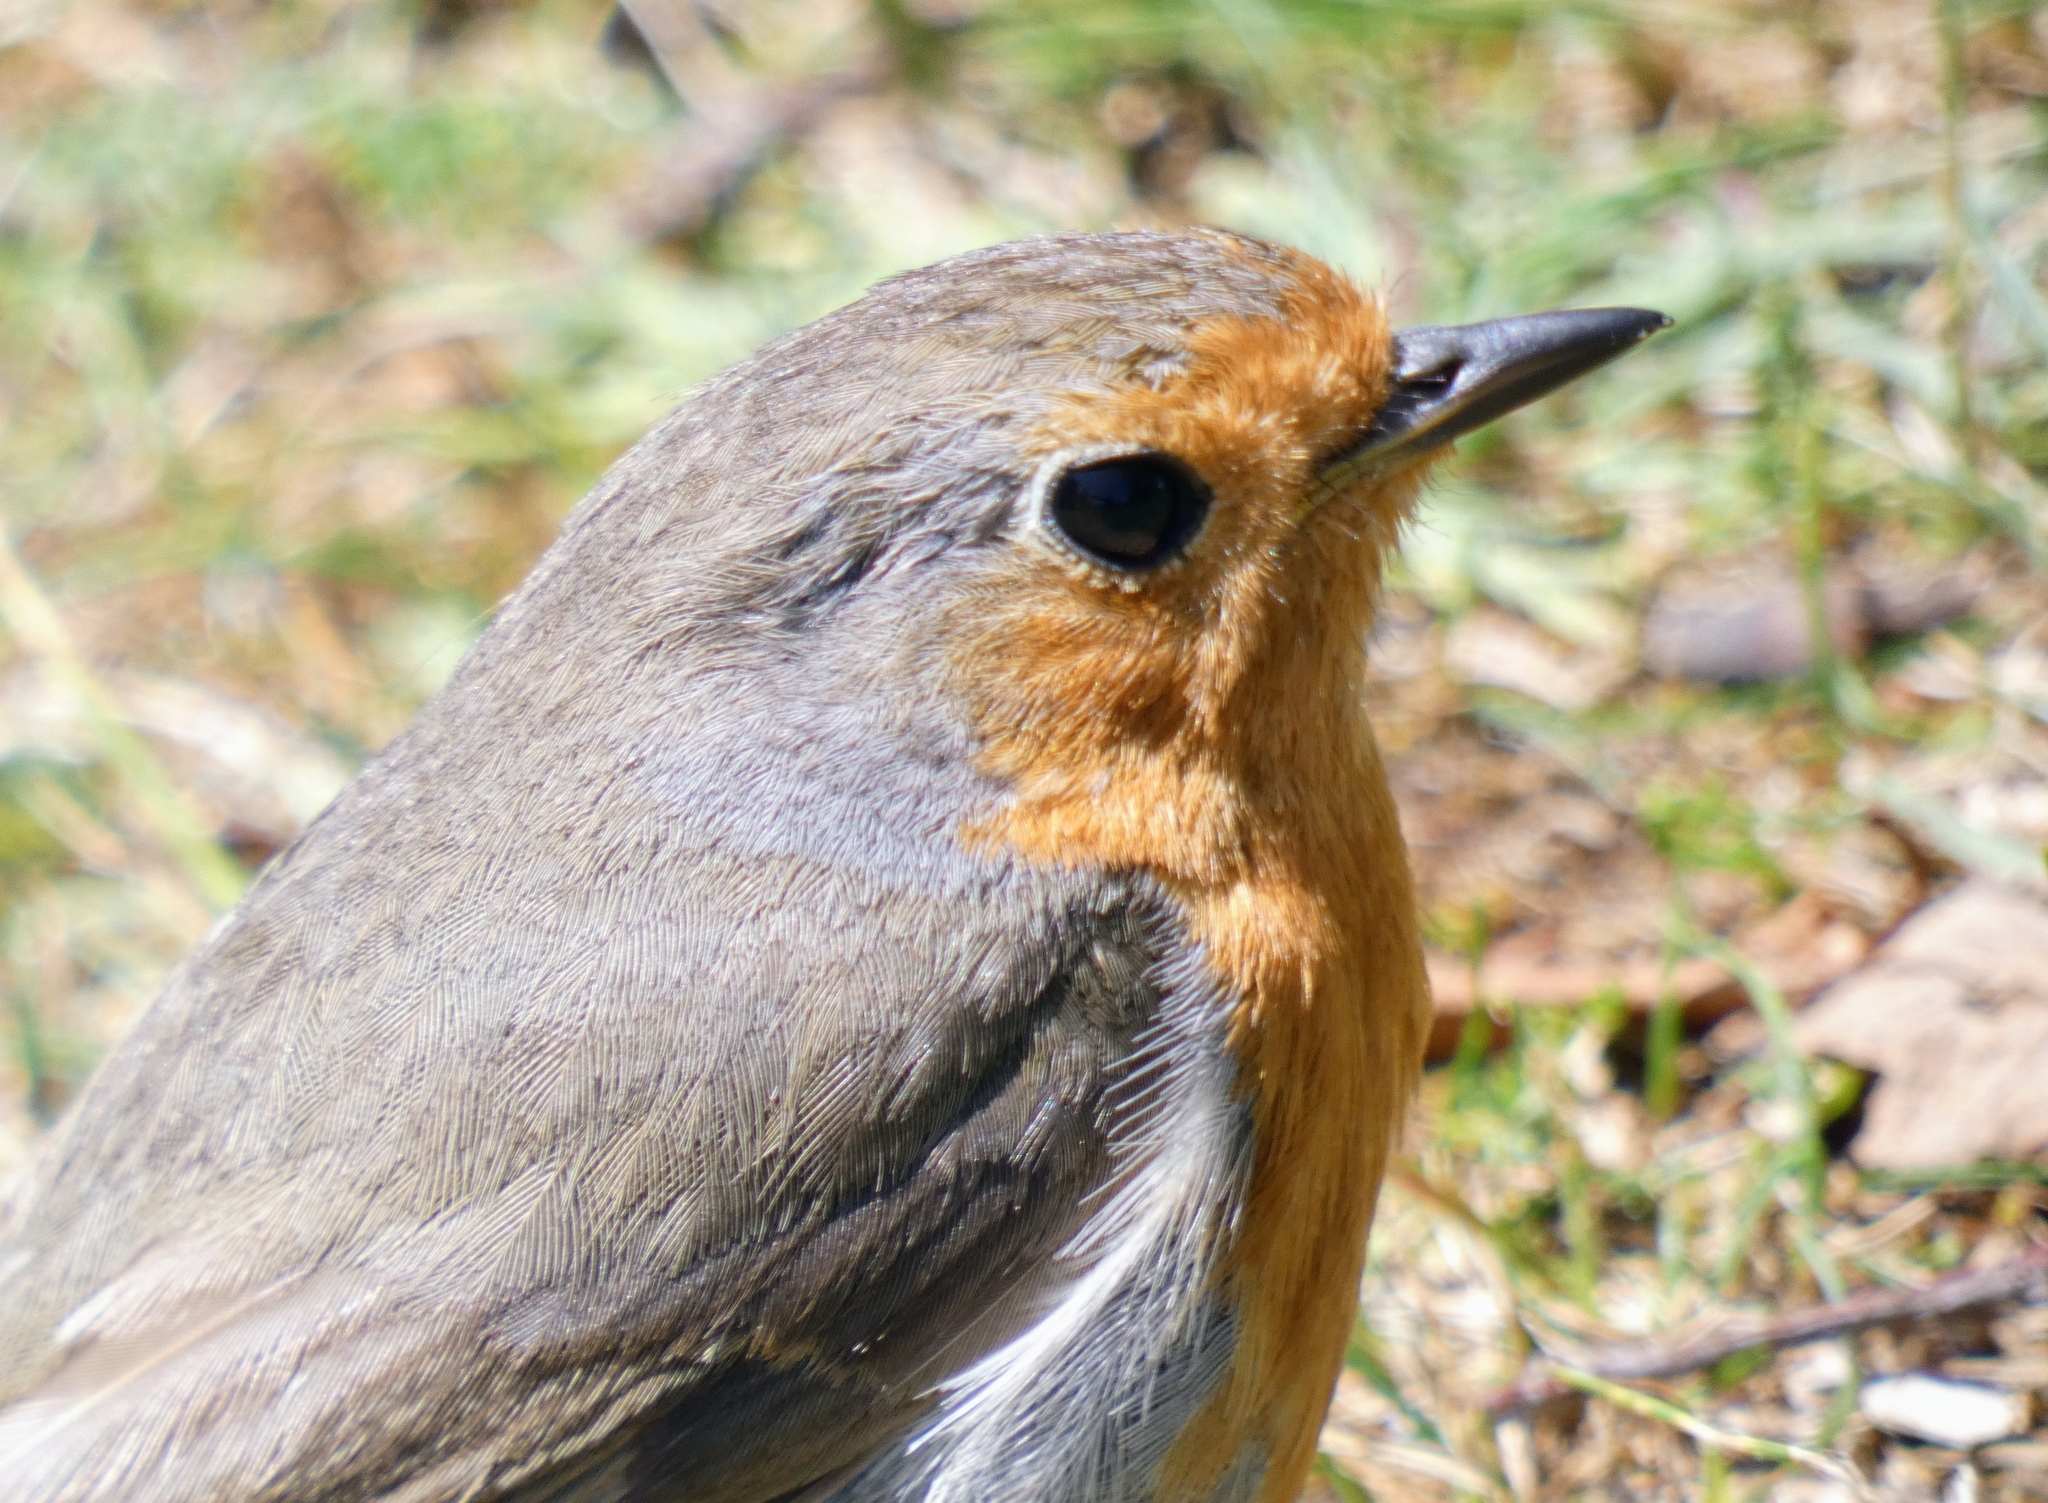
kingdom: Animalia
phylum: Chordata
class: Aves
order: Passeriformes
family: Muscicapidae
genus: Erithacus
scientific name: Erithacus rubecula
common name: European robin
